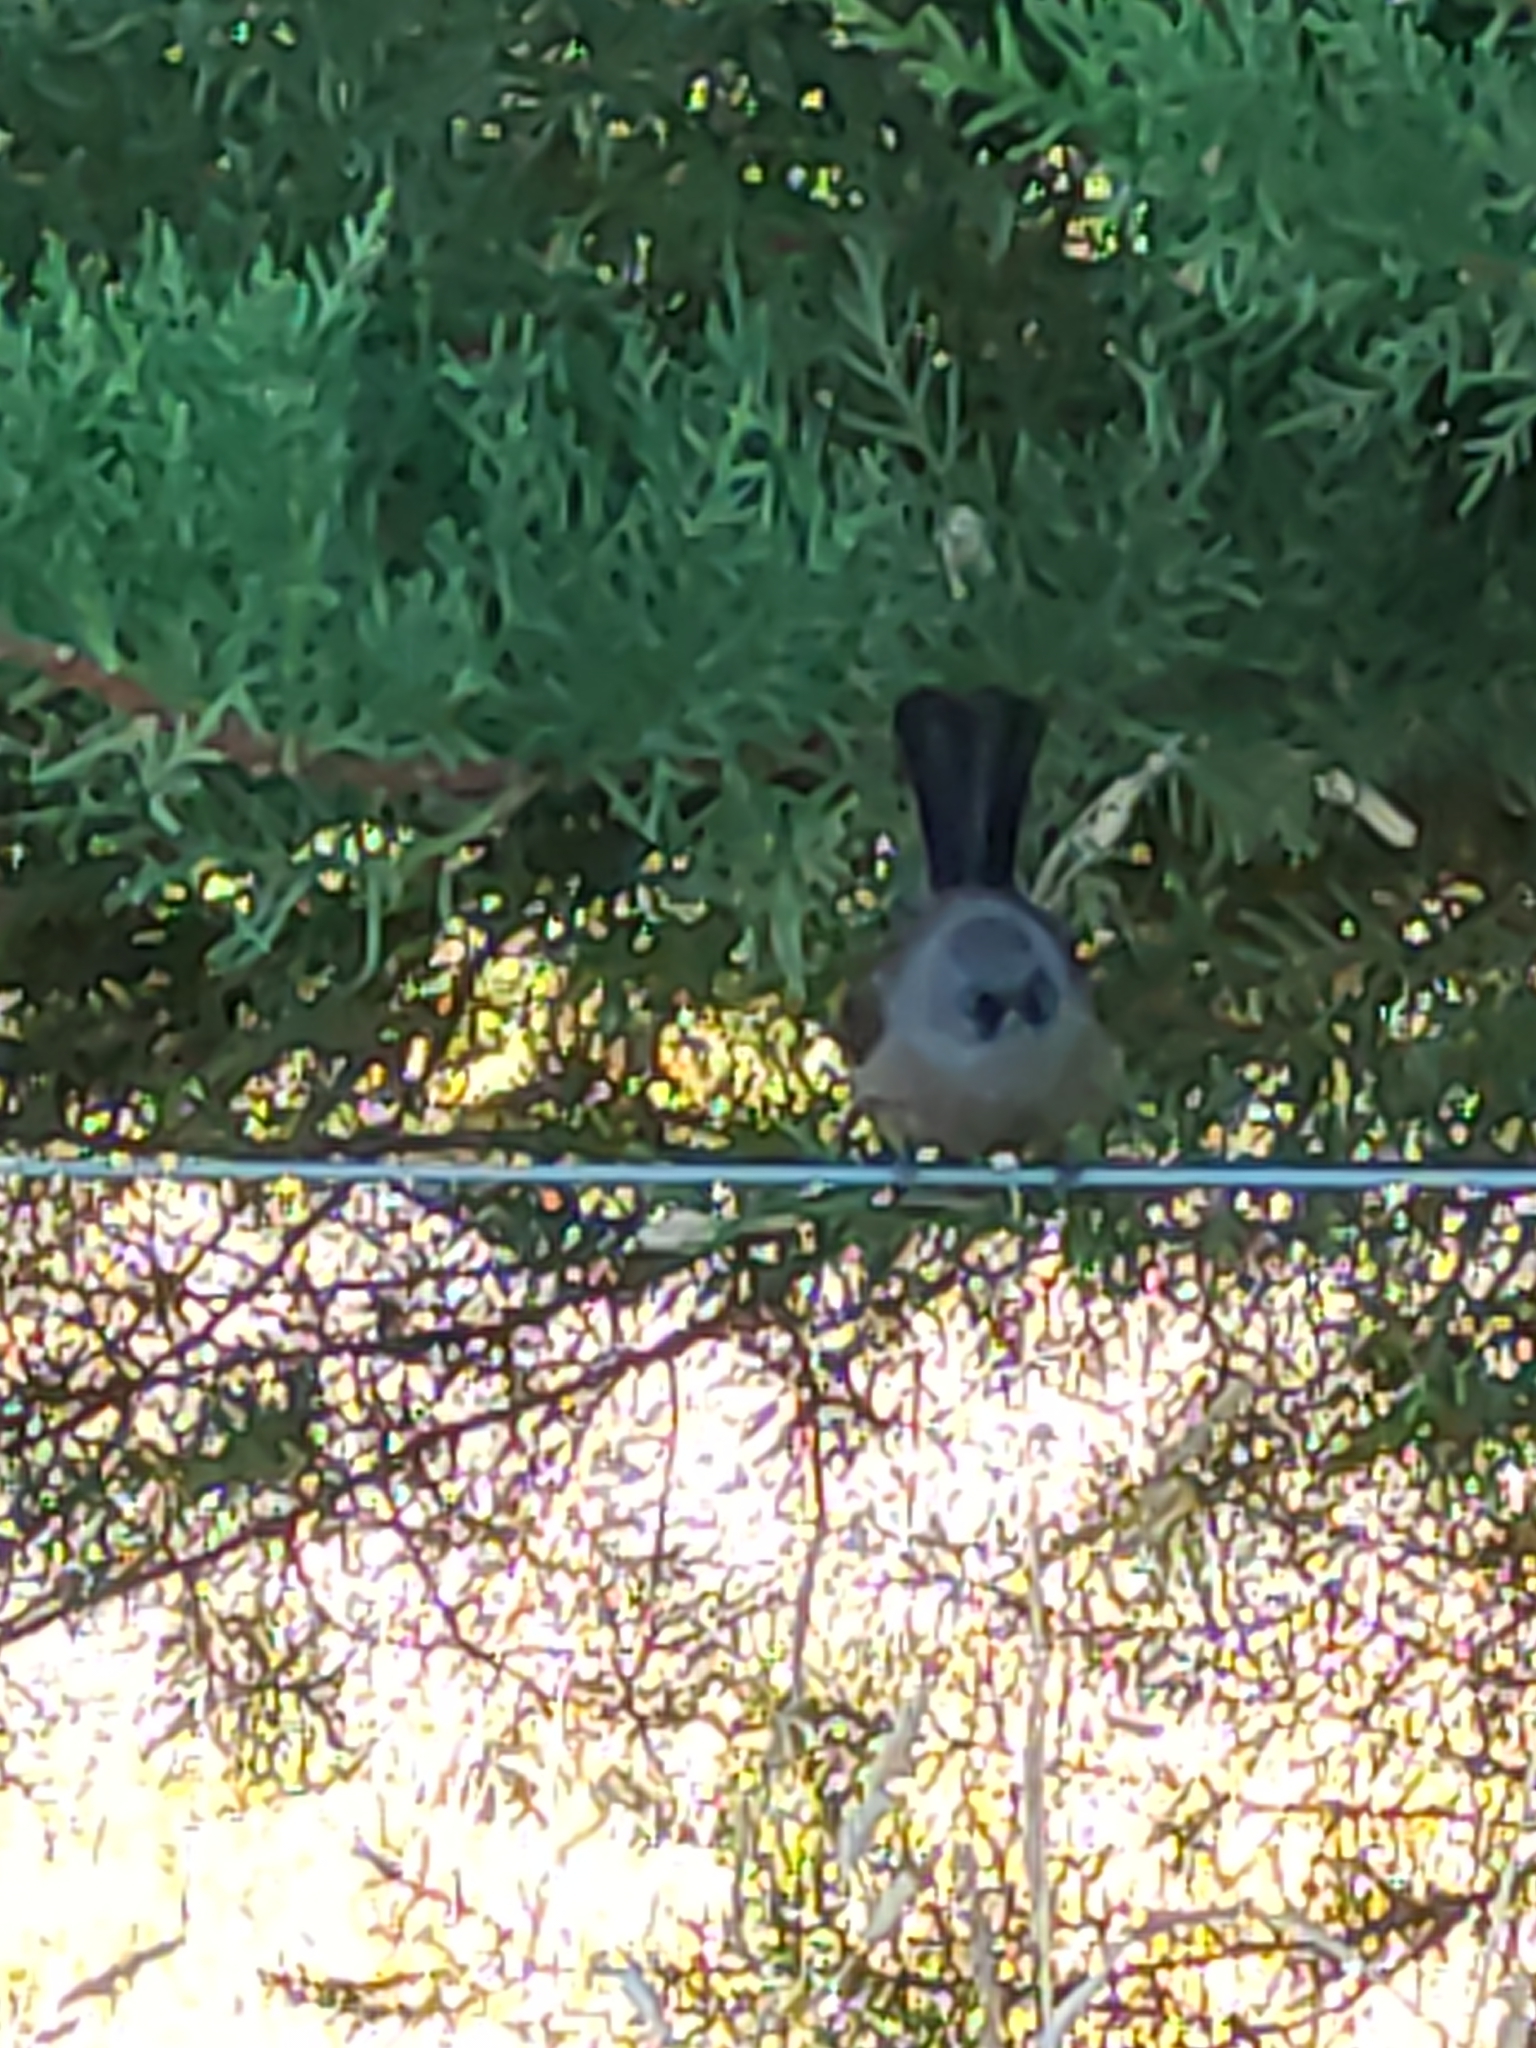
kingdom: Animalia
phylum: Chordata
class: Aves
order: Passeriformes
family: Rhipiduridae
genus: Rhipidura
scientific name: Rhipidura fuliginosa
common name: New zealand fantail
